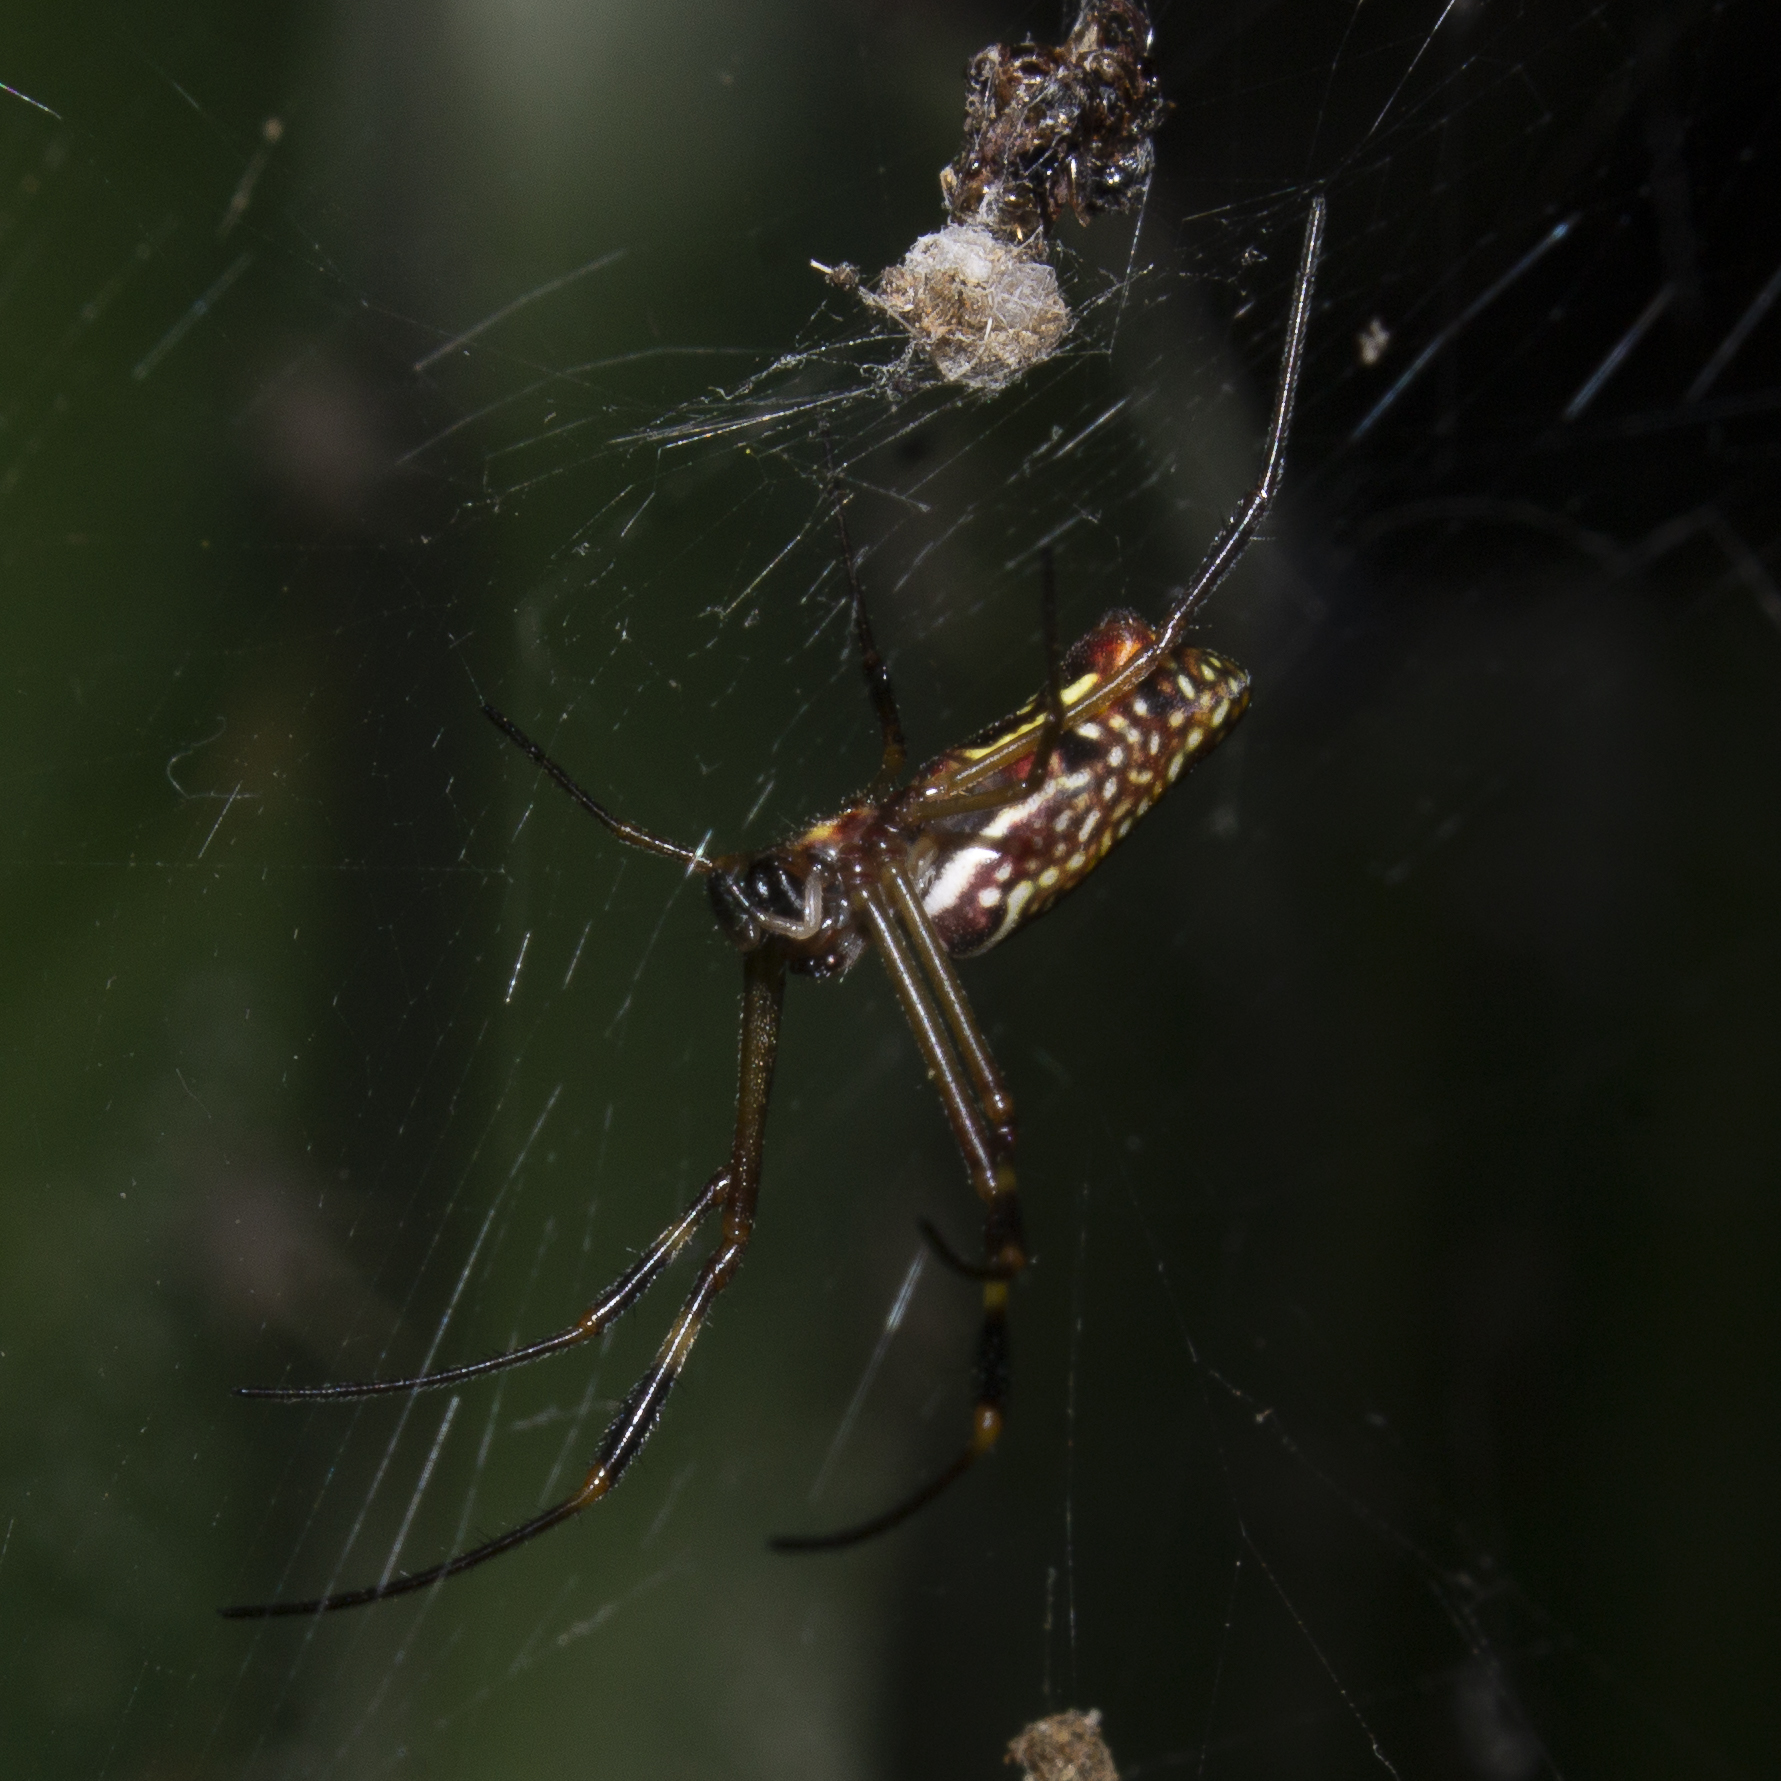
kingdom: Animalia
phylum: Arthropoda
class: Arachnida
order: Araneae
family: Araneidae
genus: Trichonephila
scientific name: Trichonephila clavipes
